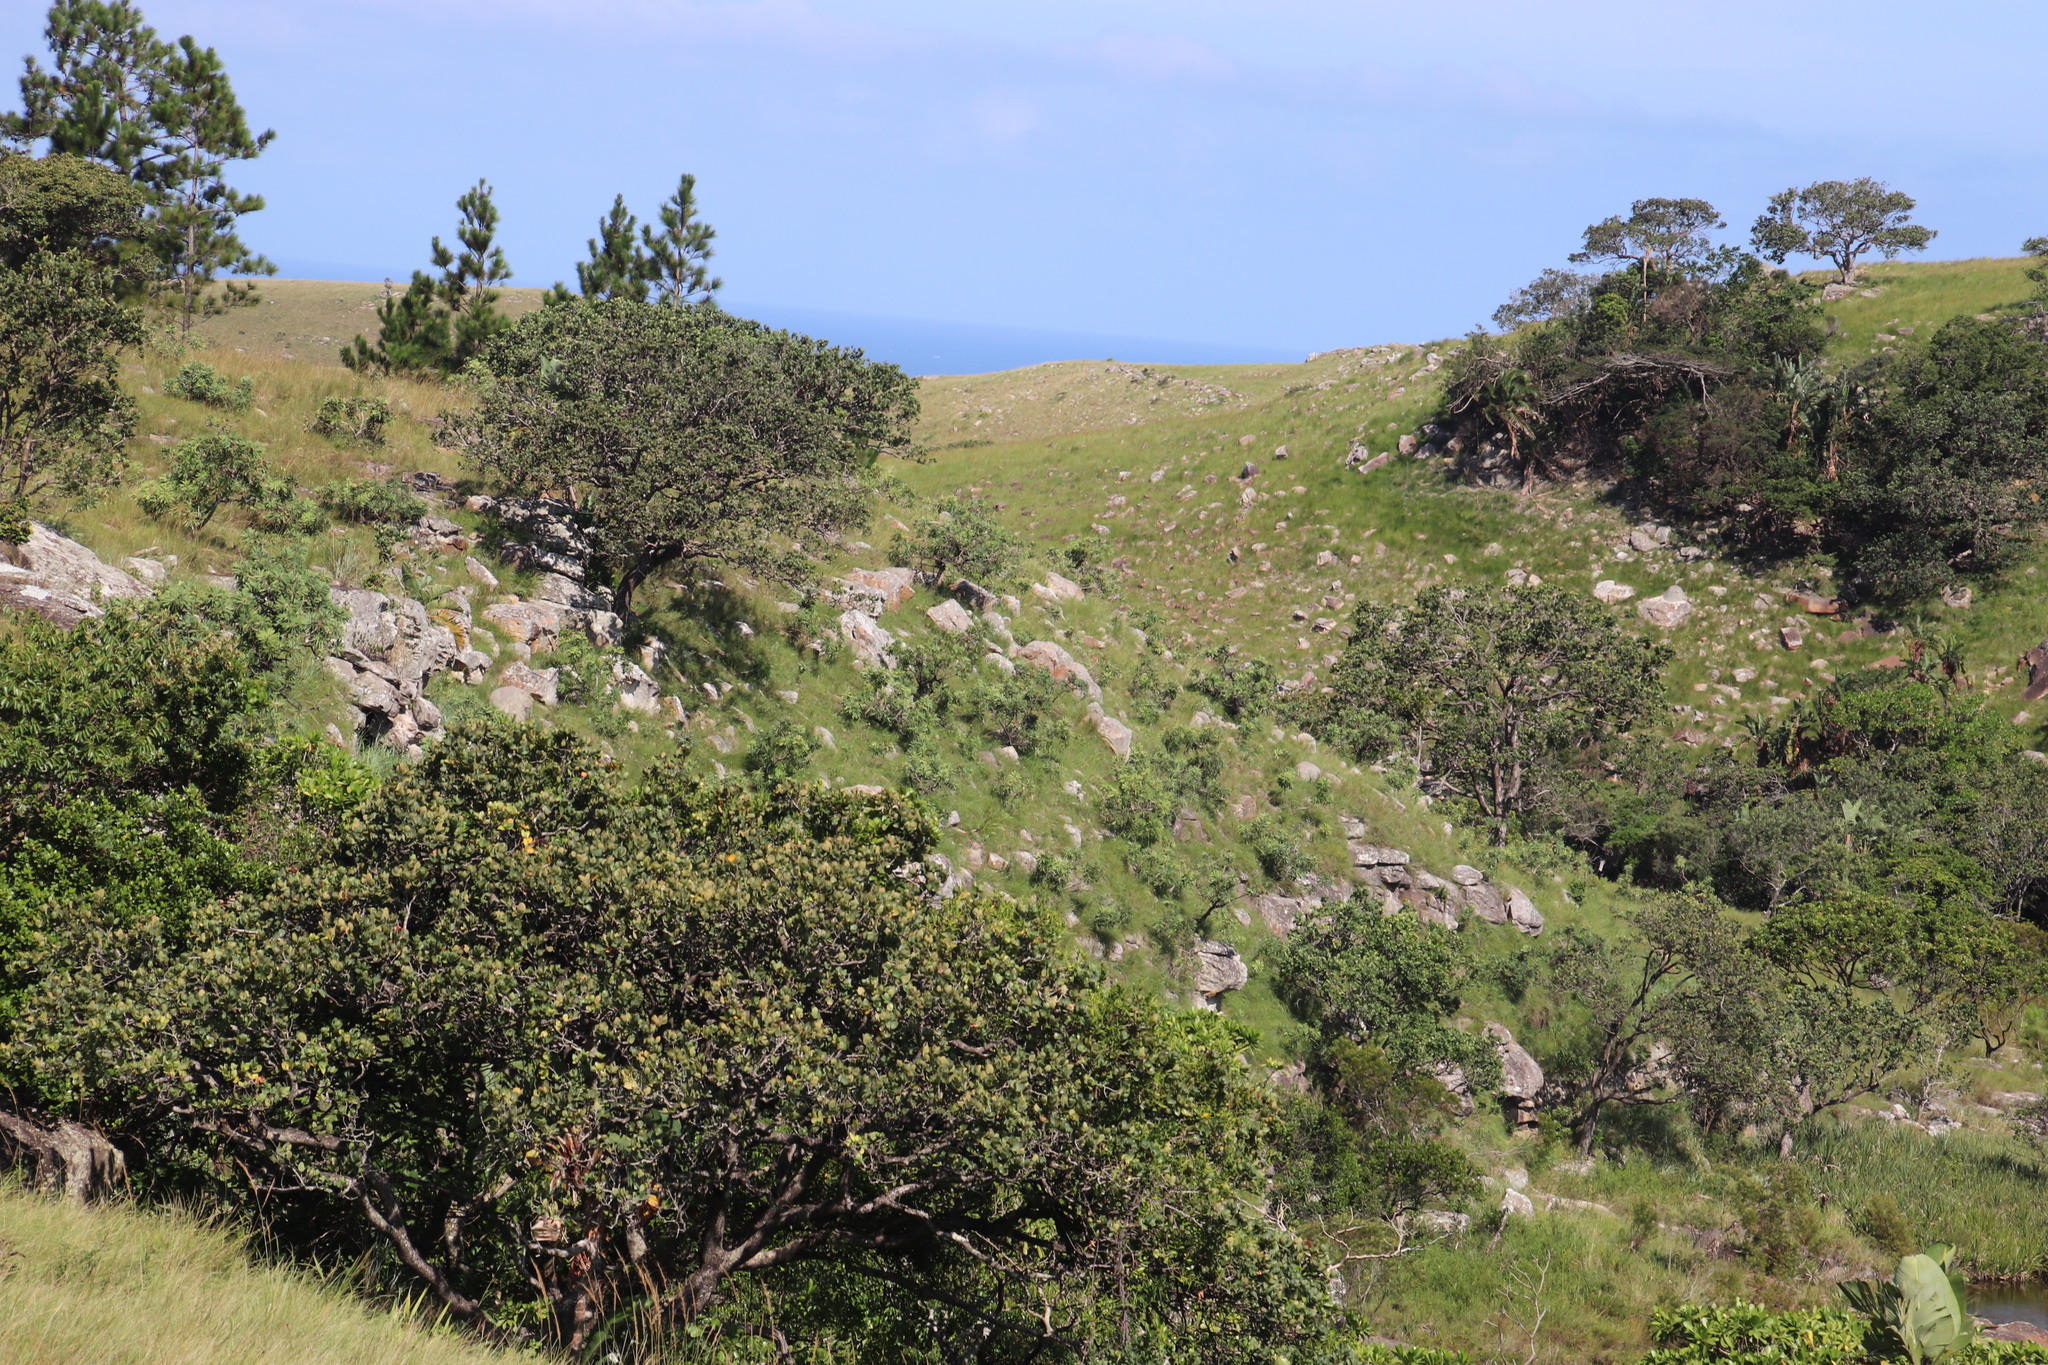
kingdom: Plantae
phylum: Tracheophyta
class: Magnoliopsida
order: Proteales
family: Proteaceae
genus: Protea
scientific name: Protea caffra
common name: Common sugarbush
